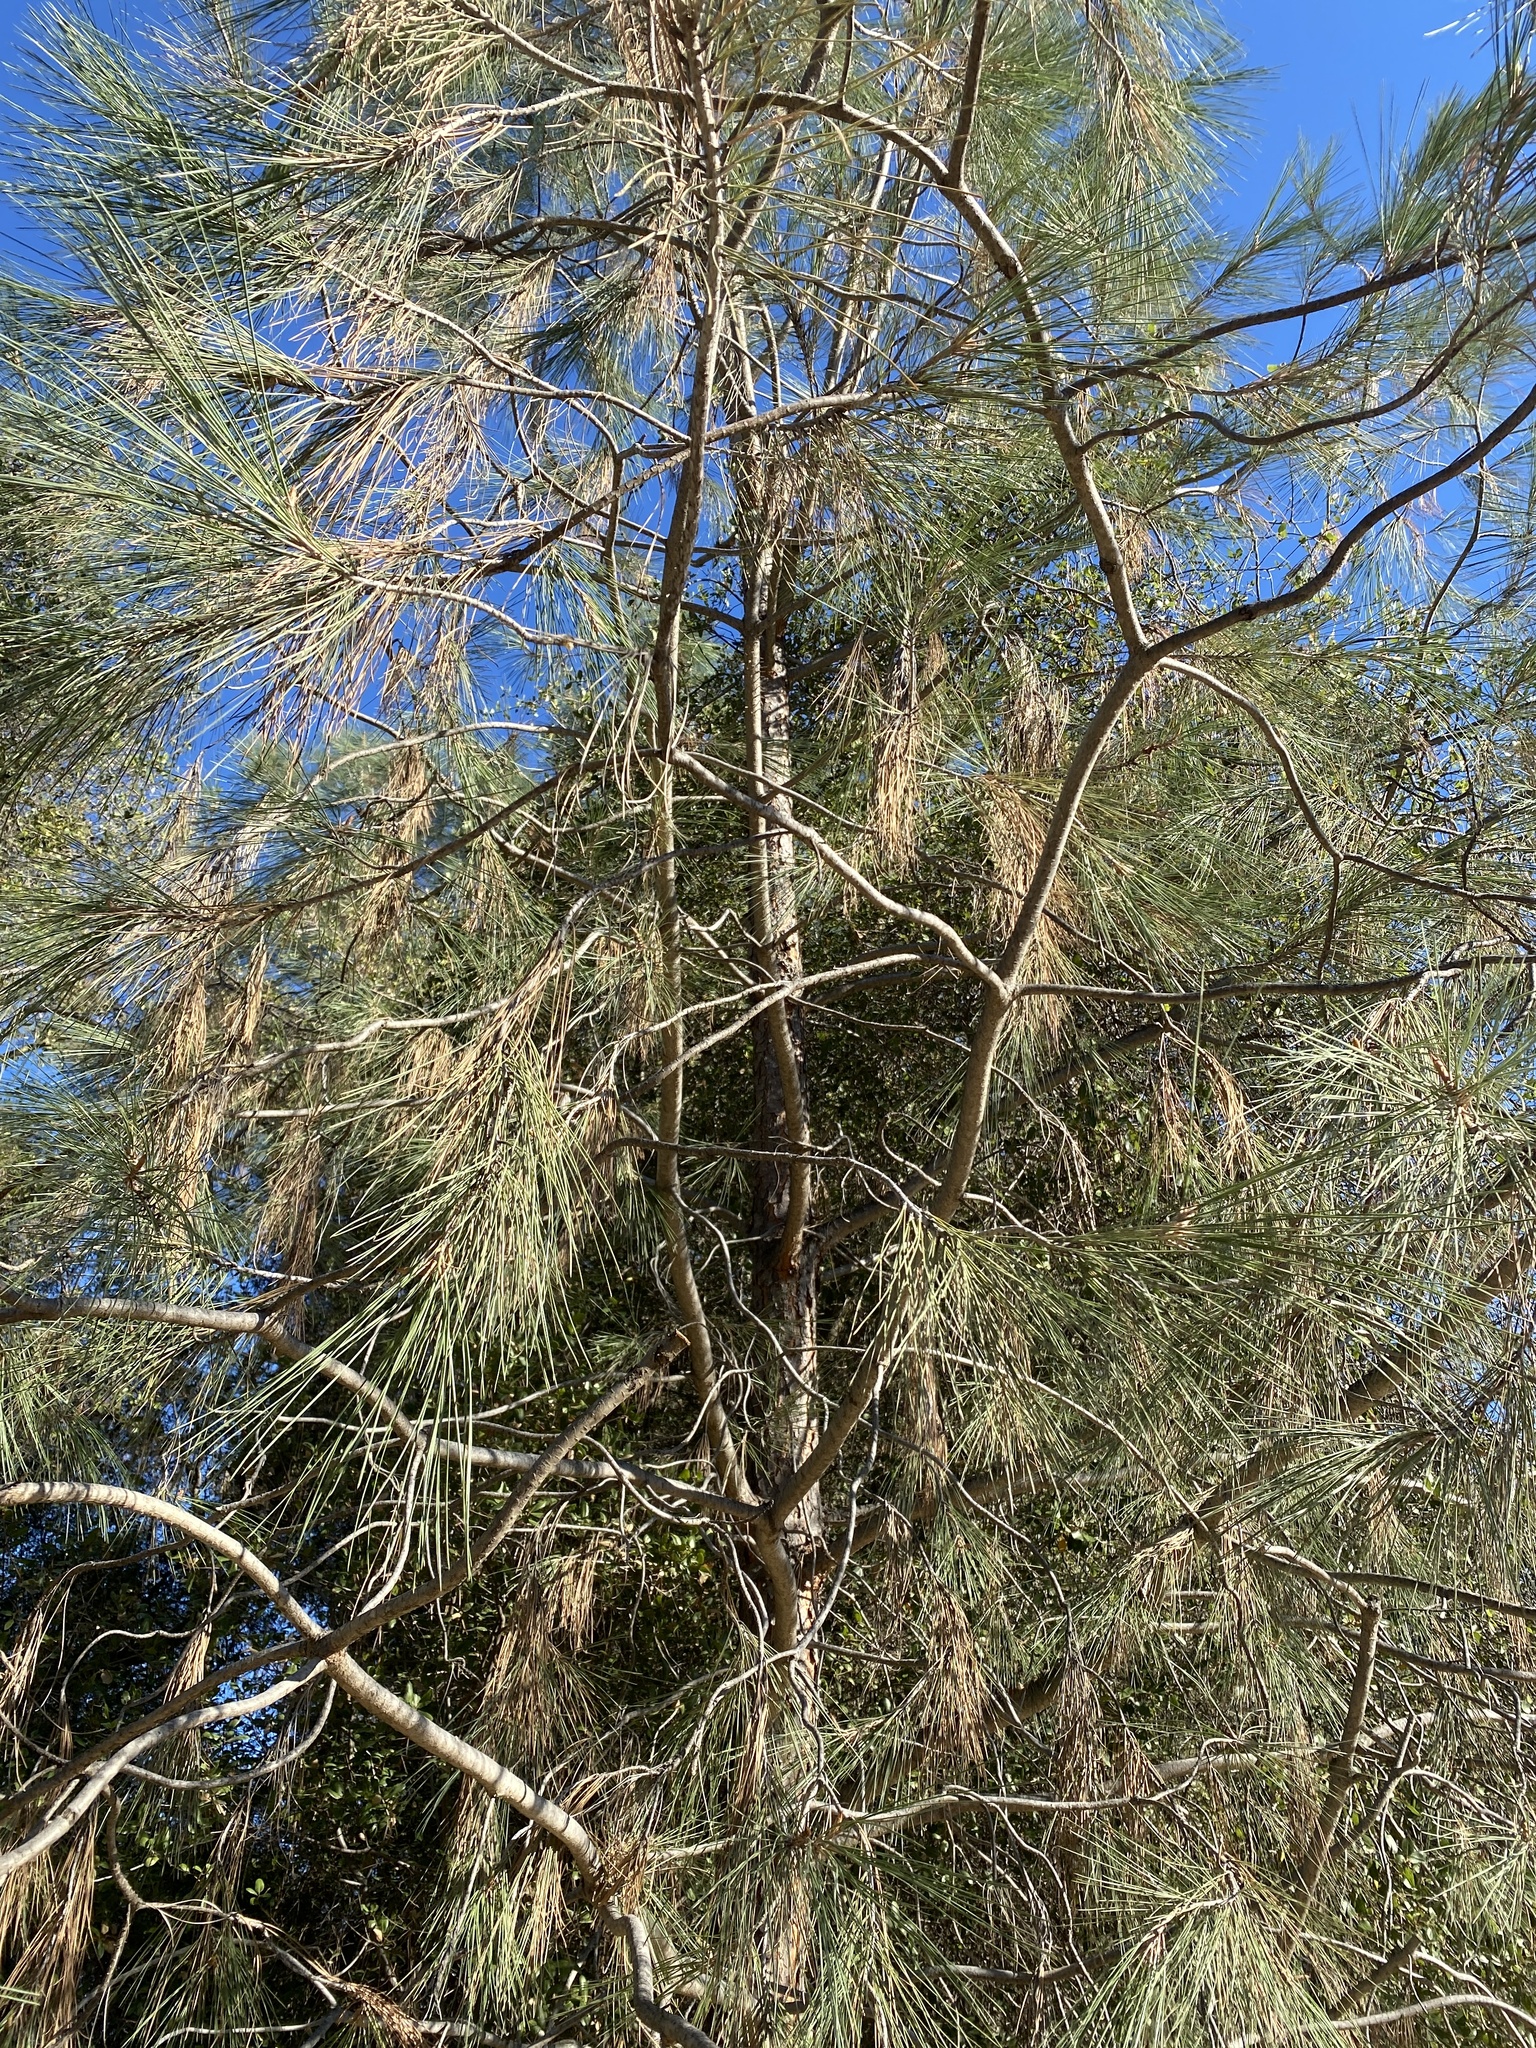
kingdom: Plantae
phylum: Tracheophyta
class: Pinopsida
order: Pinales
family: Pinaceae
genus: Pinus
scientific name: Pinus sabiniana
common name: Bull pine
